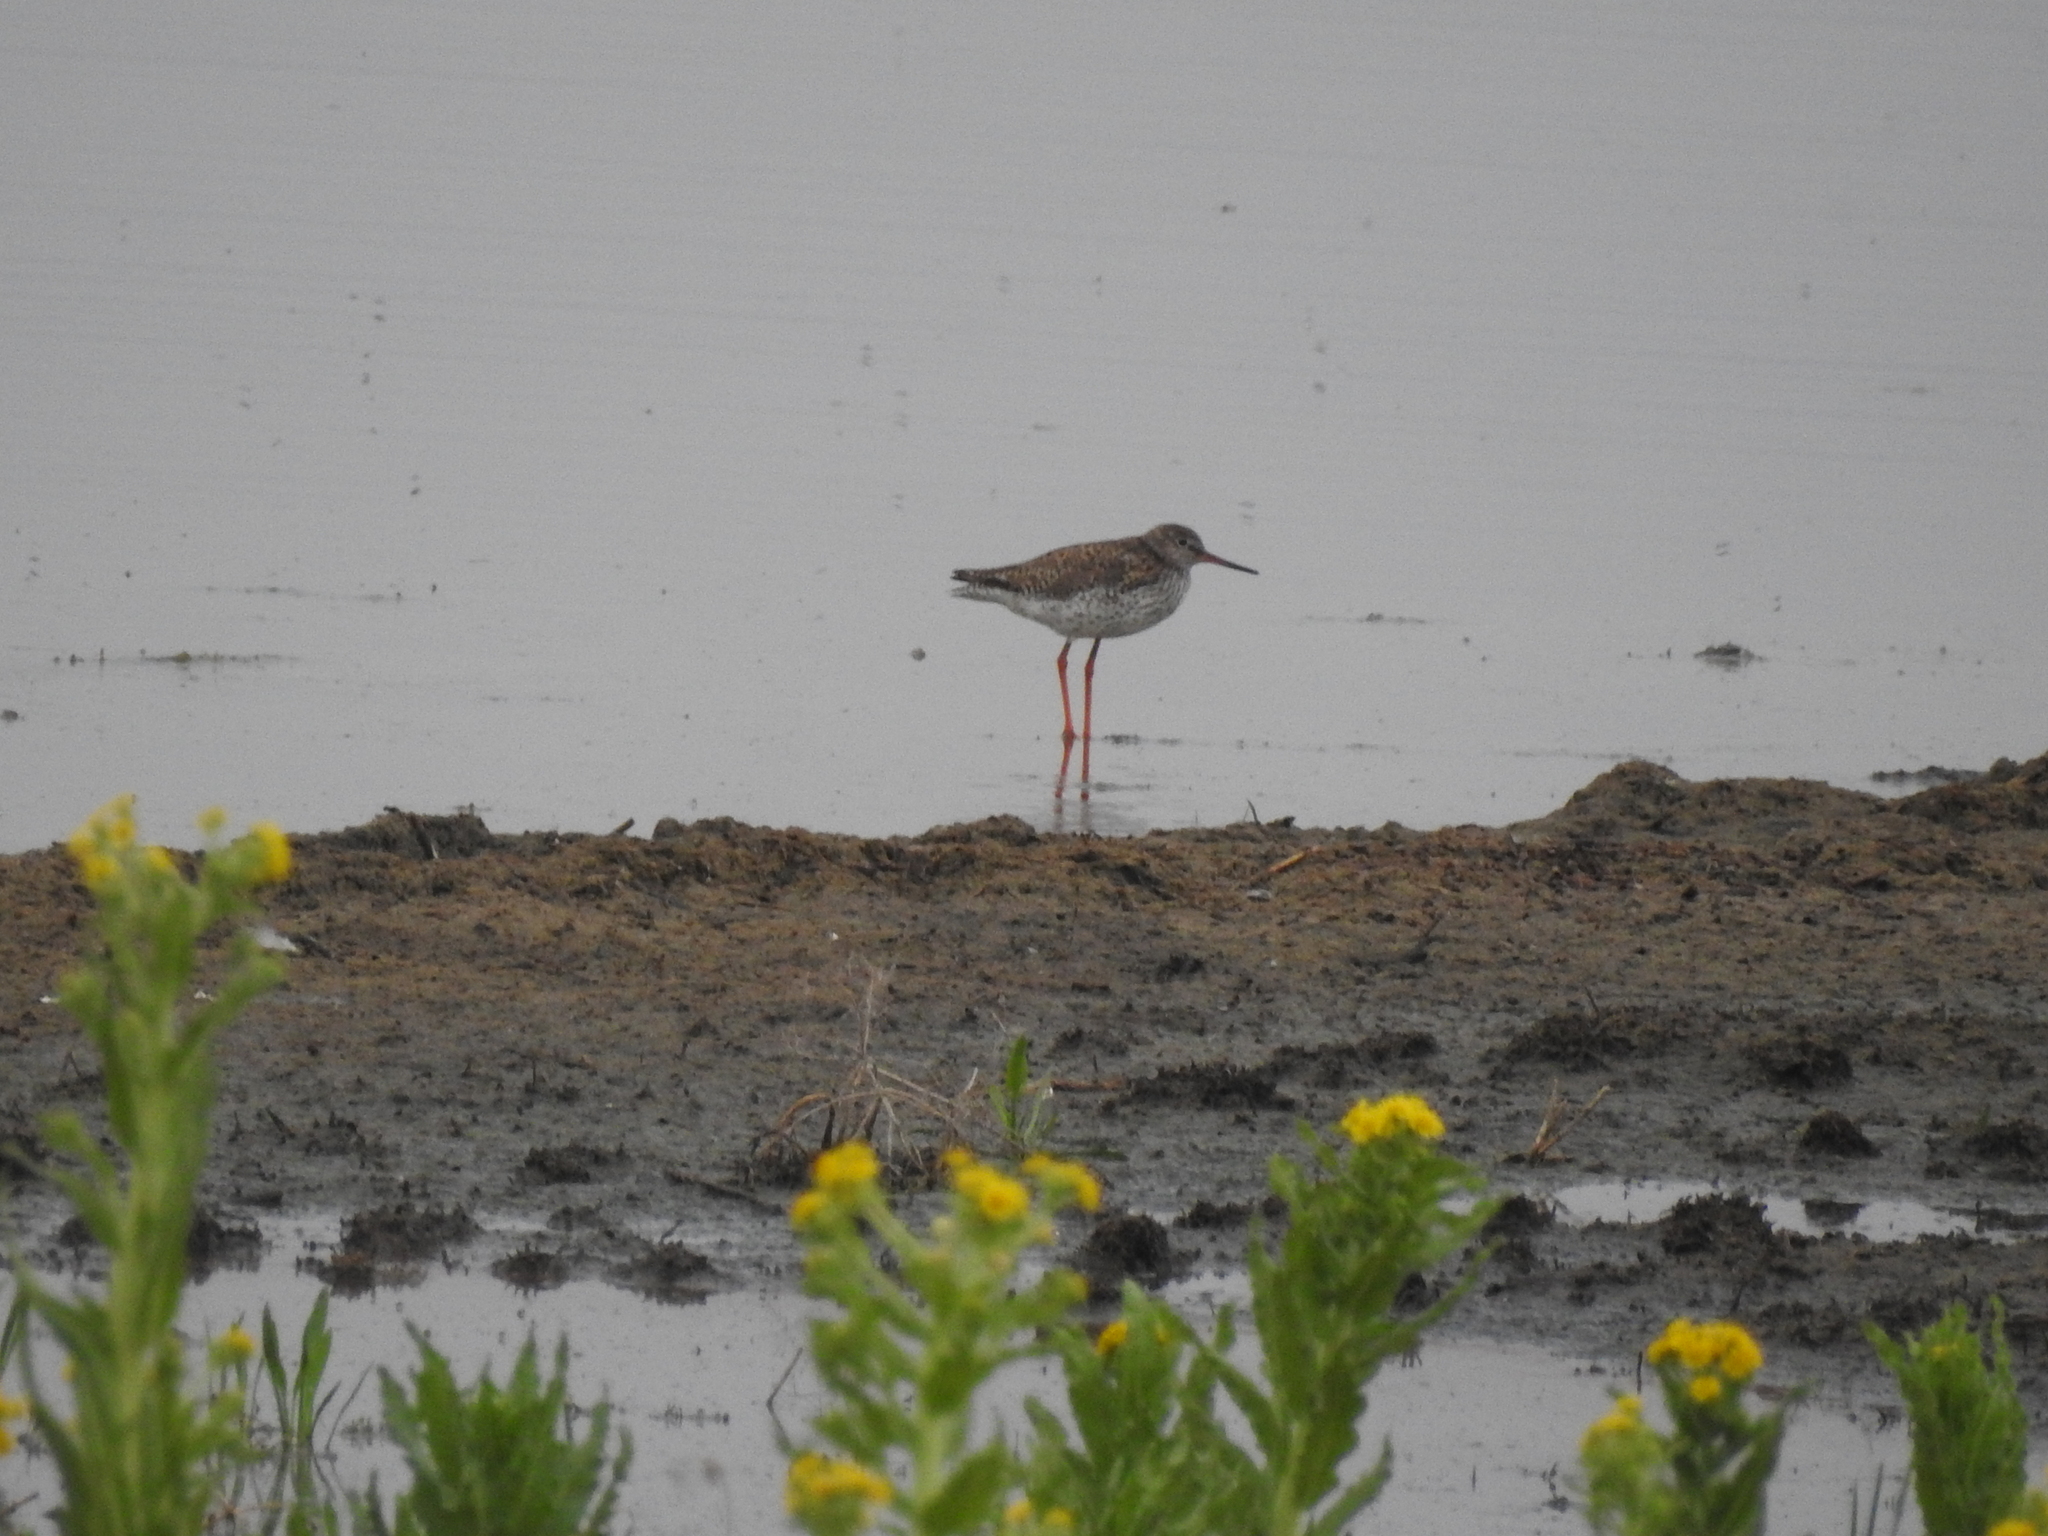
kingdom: Animalia
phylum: Chordata
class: Aves
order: Charadriiformes
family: Scolopacidae
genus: Tringa
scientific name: Tringa totanus
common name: Common redshank
